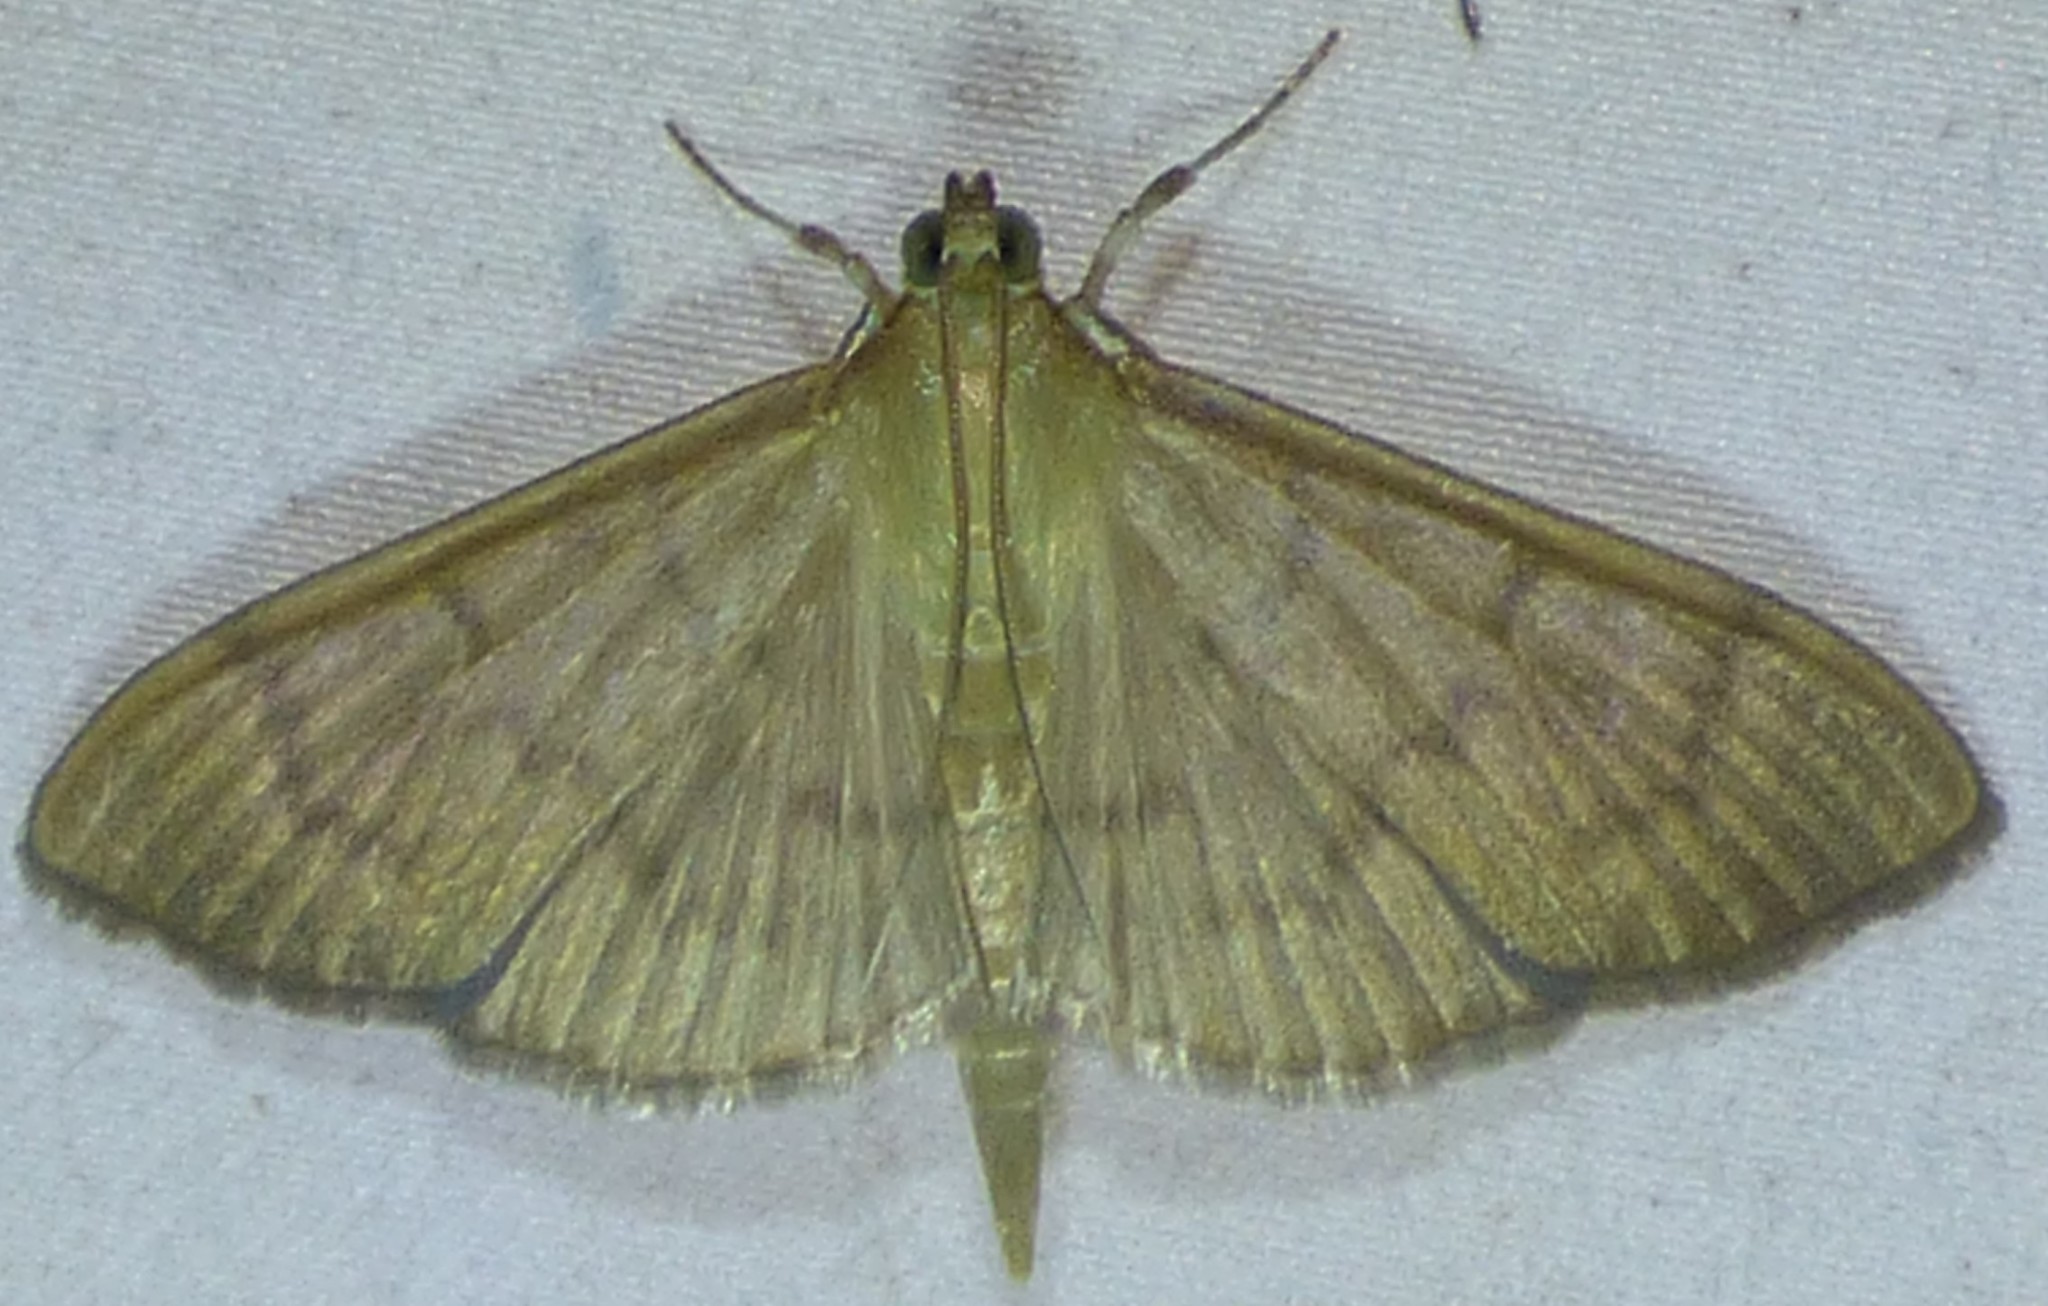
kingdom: Animalia
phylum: Arthropoda
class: Insecta
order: Lepidoptera
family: Crambidae
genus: Pleuroptya
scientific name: Pleuroptya silicalis
